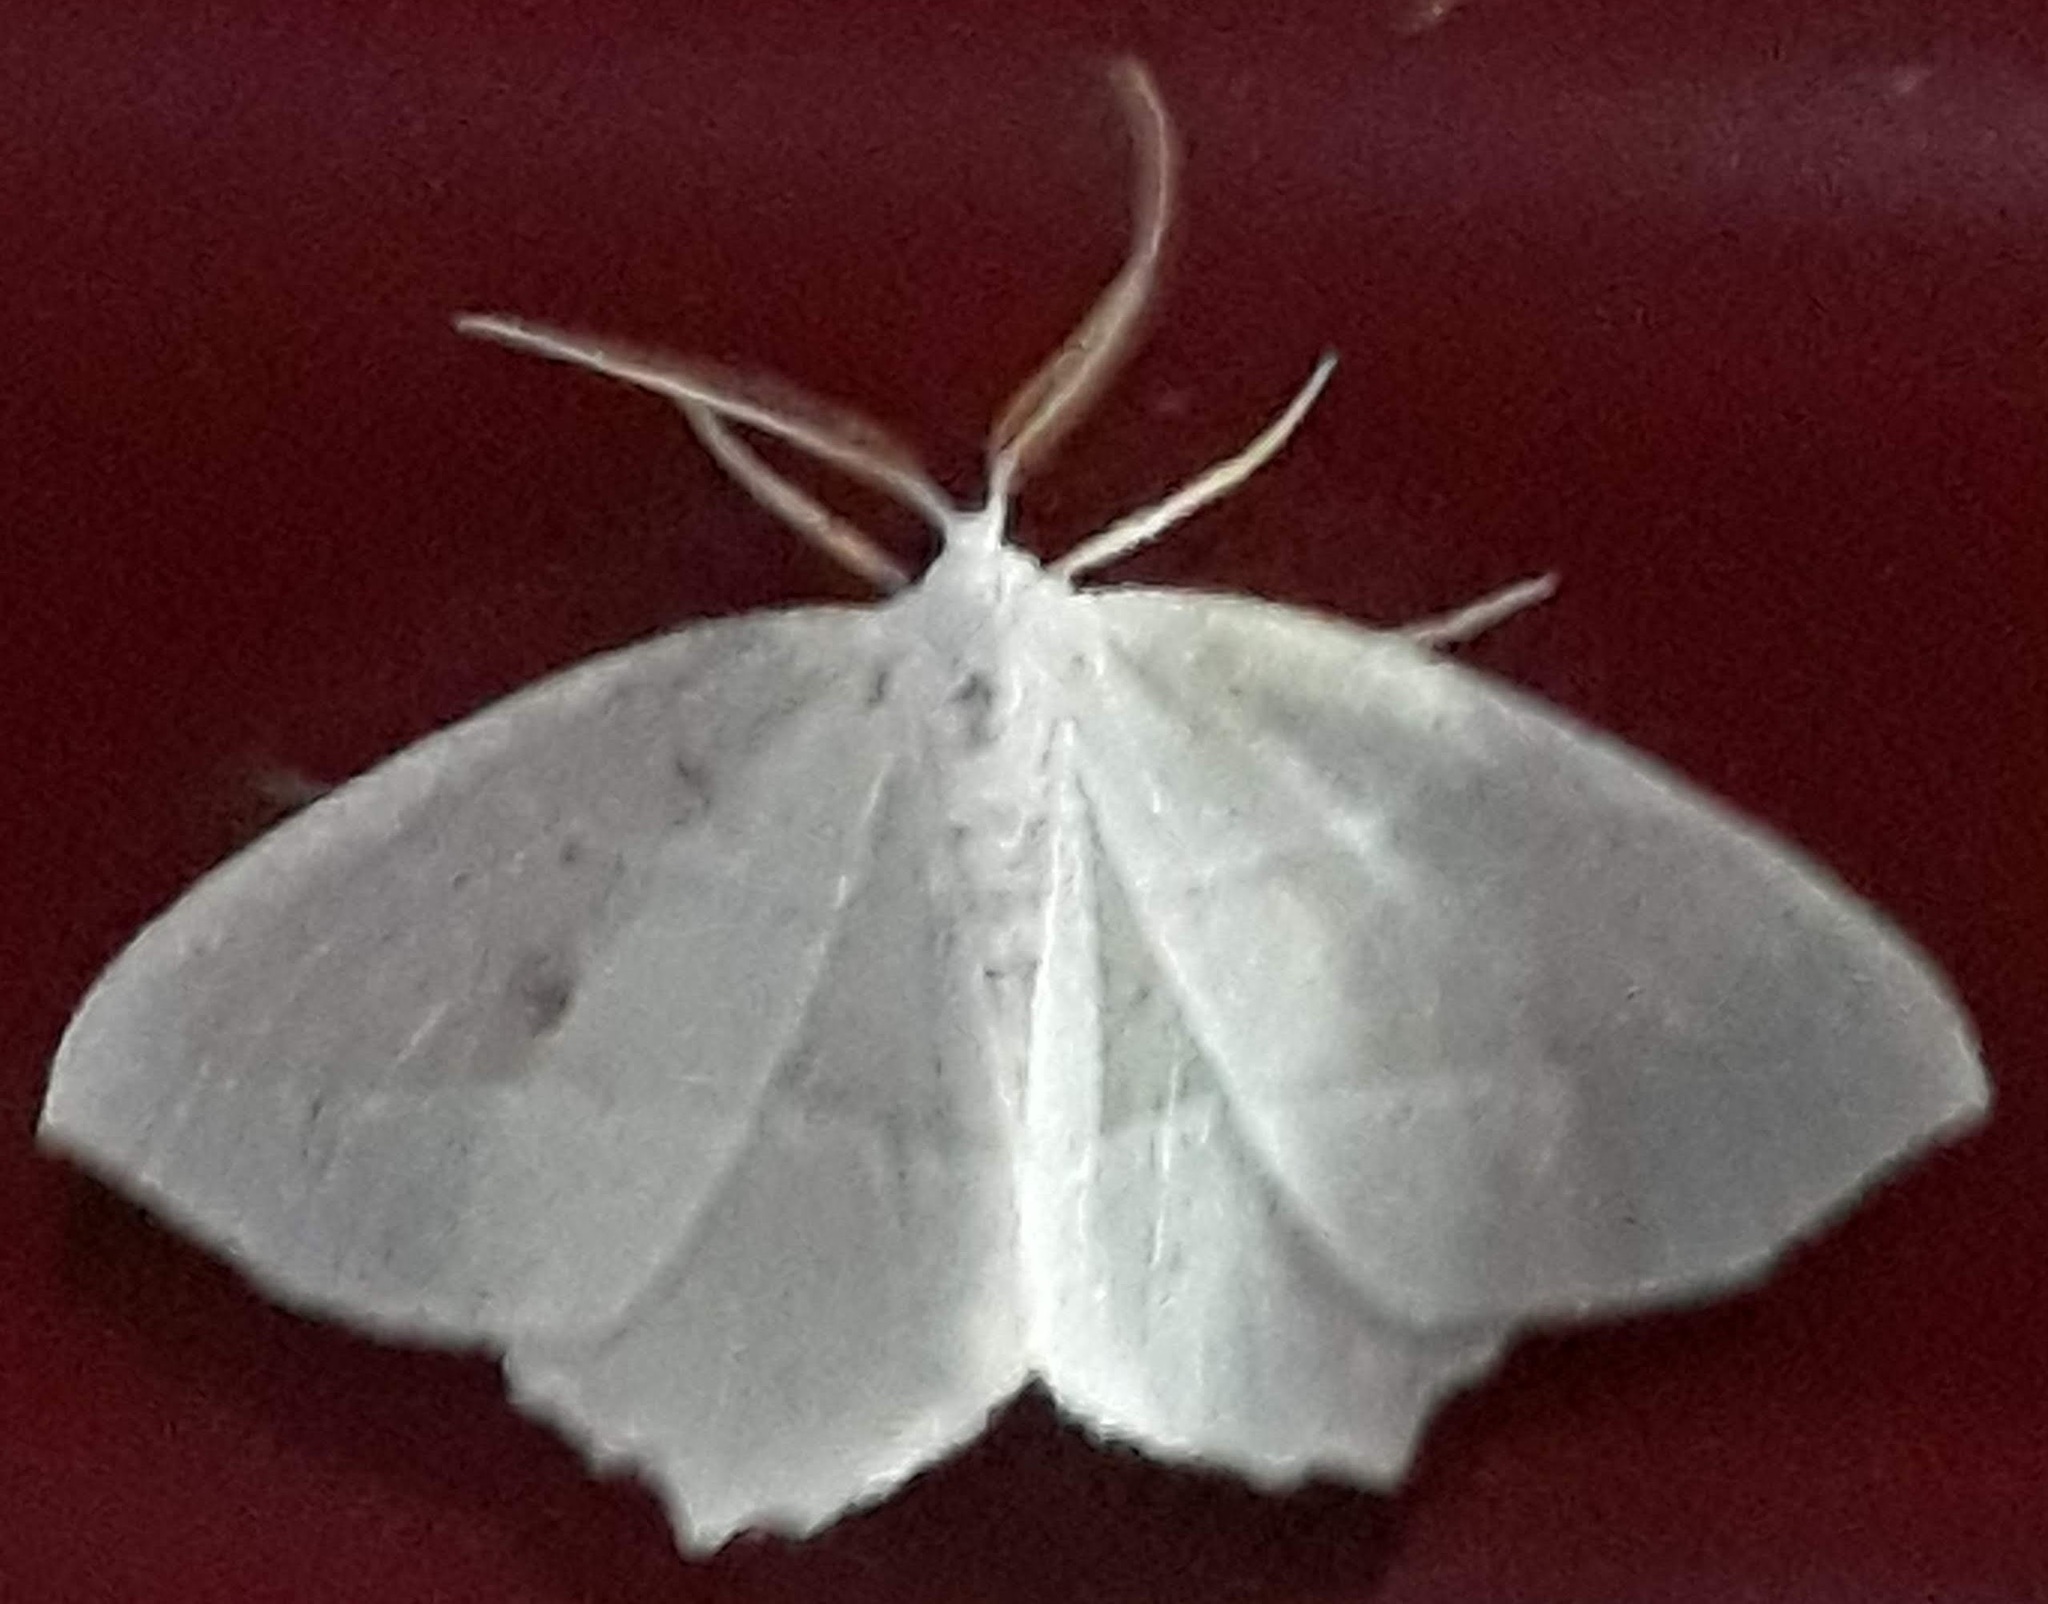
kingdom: Animalia
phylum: Arthropoda
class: Insecta
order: Lepidoptera
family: Geometridae
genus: Campaea
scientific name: Campaea perlata
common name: Fringed looper
